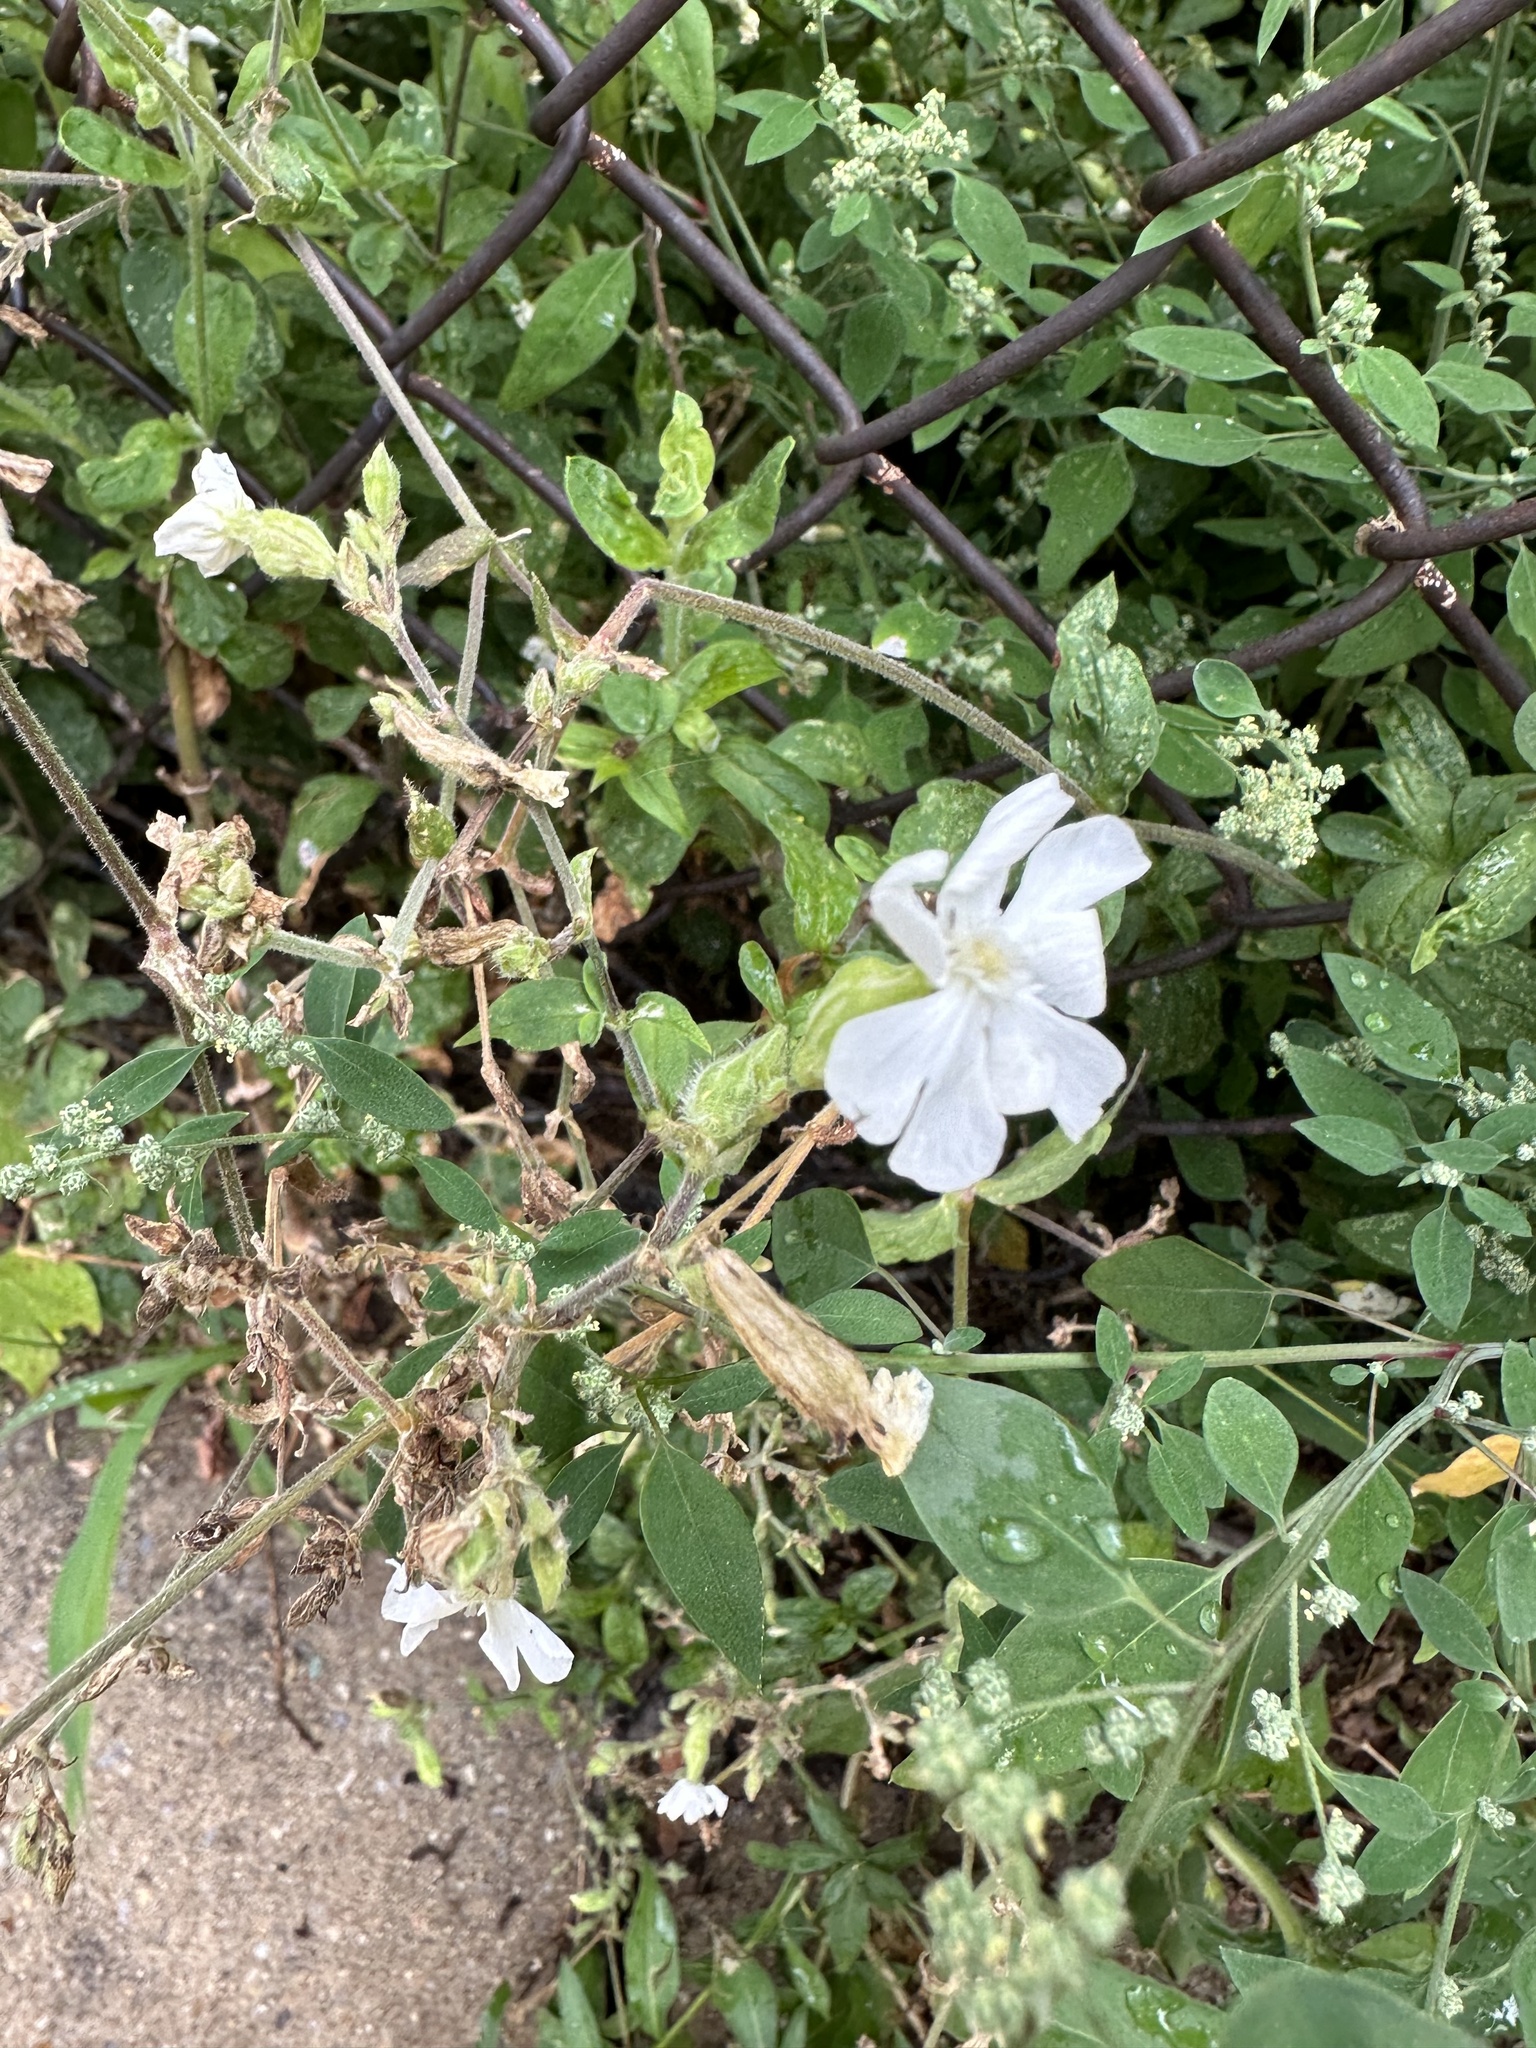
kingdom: Plantae
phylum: Tracheophyta
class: Magnoliopsida
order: Caryophyllales
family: Caryophyllaceae
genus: Silene
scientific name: Silene latifolia
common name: White campion
